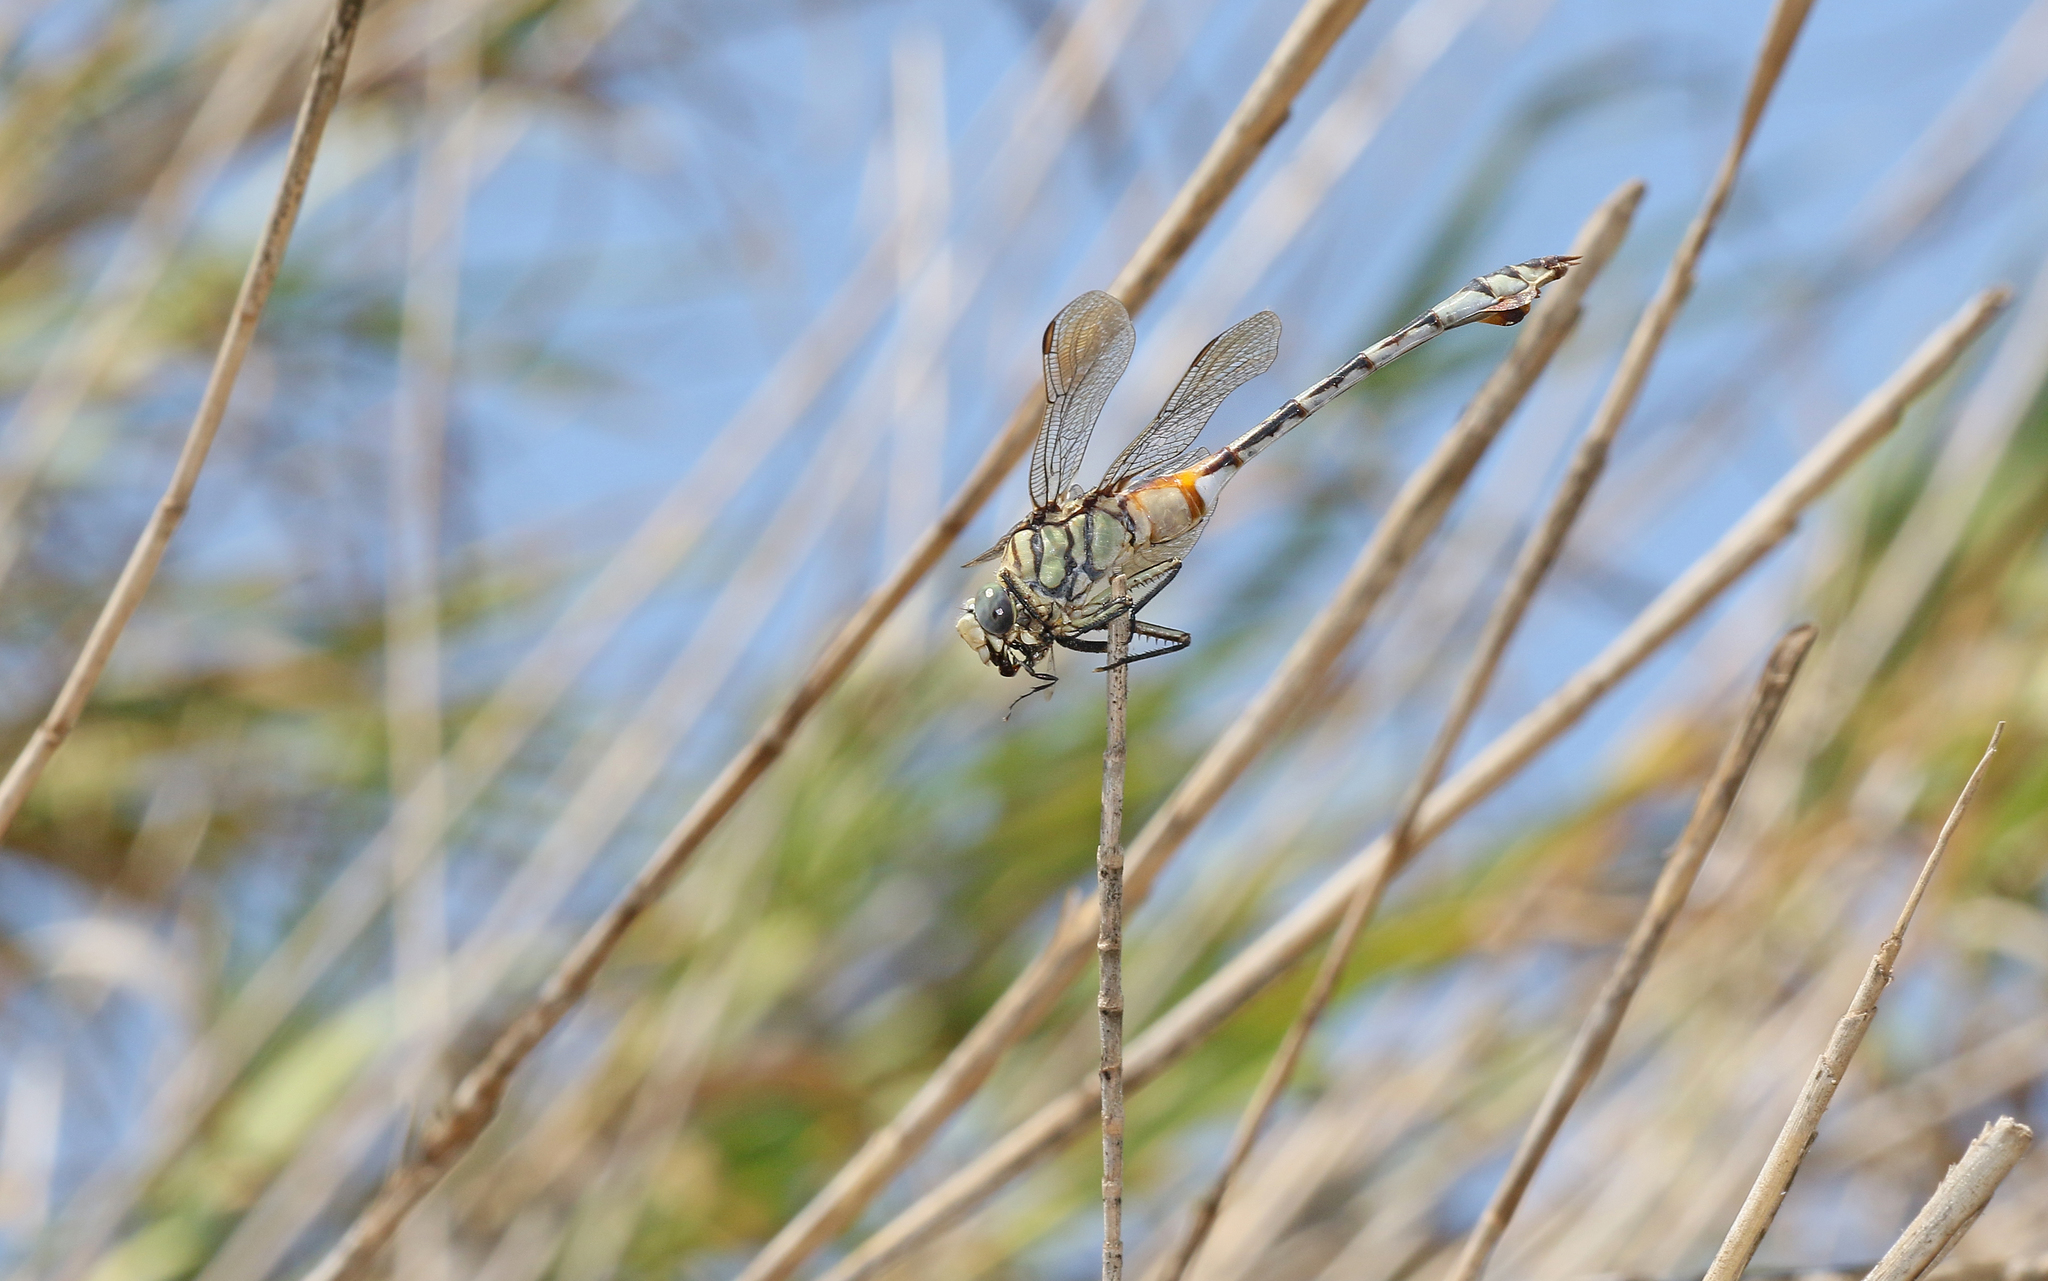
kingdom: Animalia
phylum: Arthropoda
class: Insecta
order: Odonata
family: Gomphidae
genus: Lindenia
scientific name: Lindenia tetraphylla
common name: Bladetail
